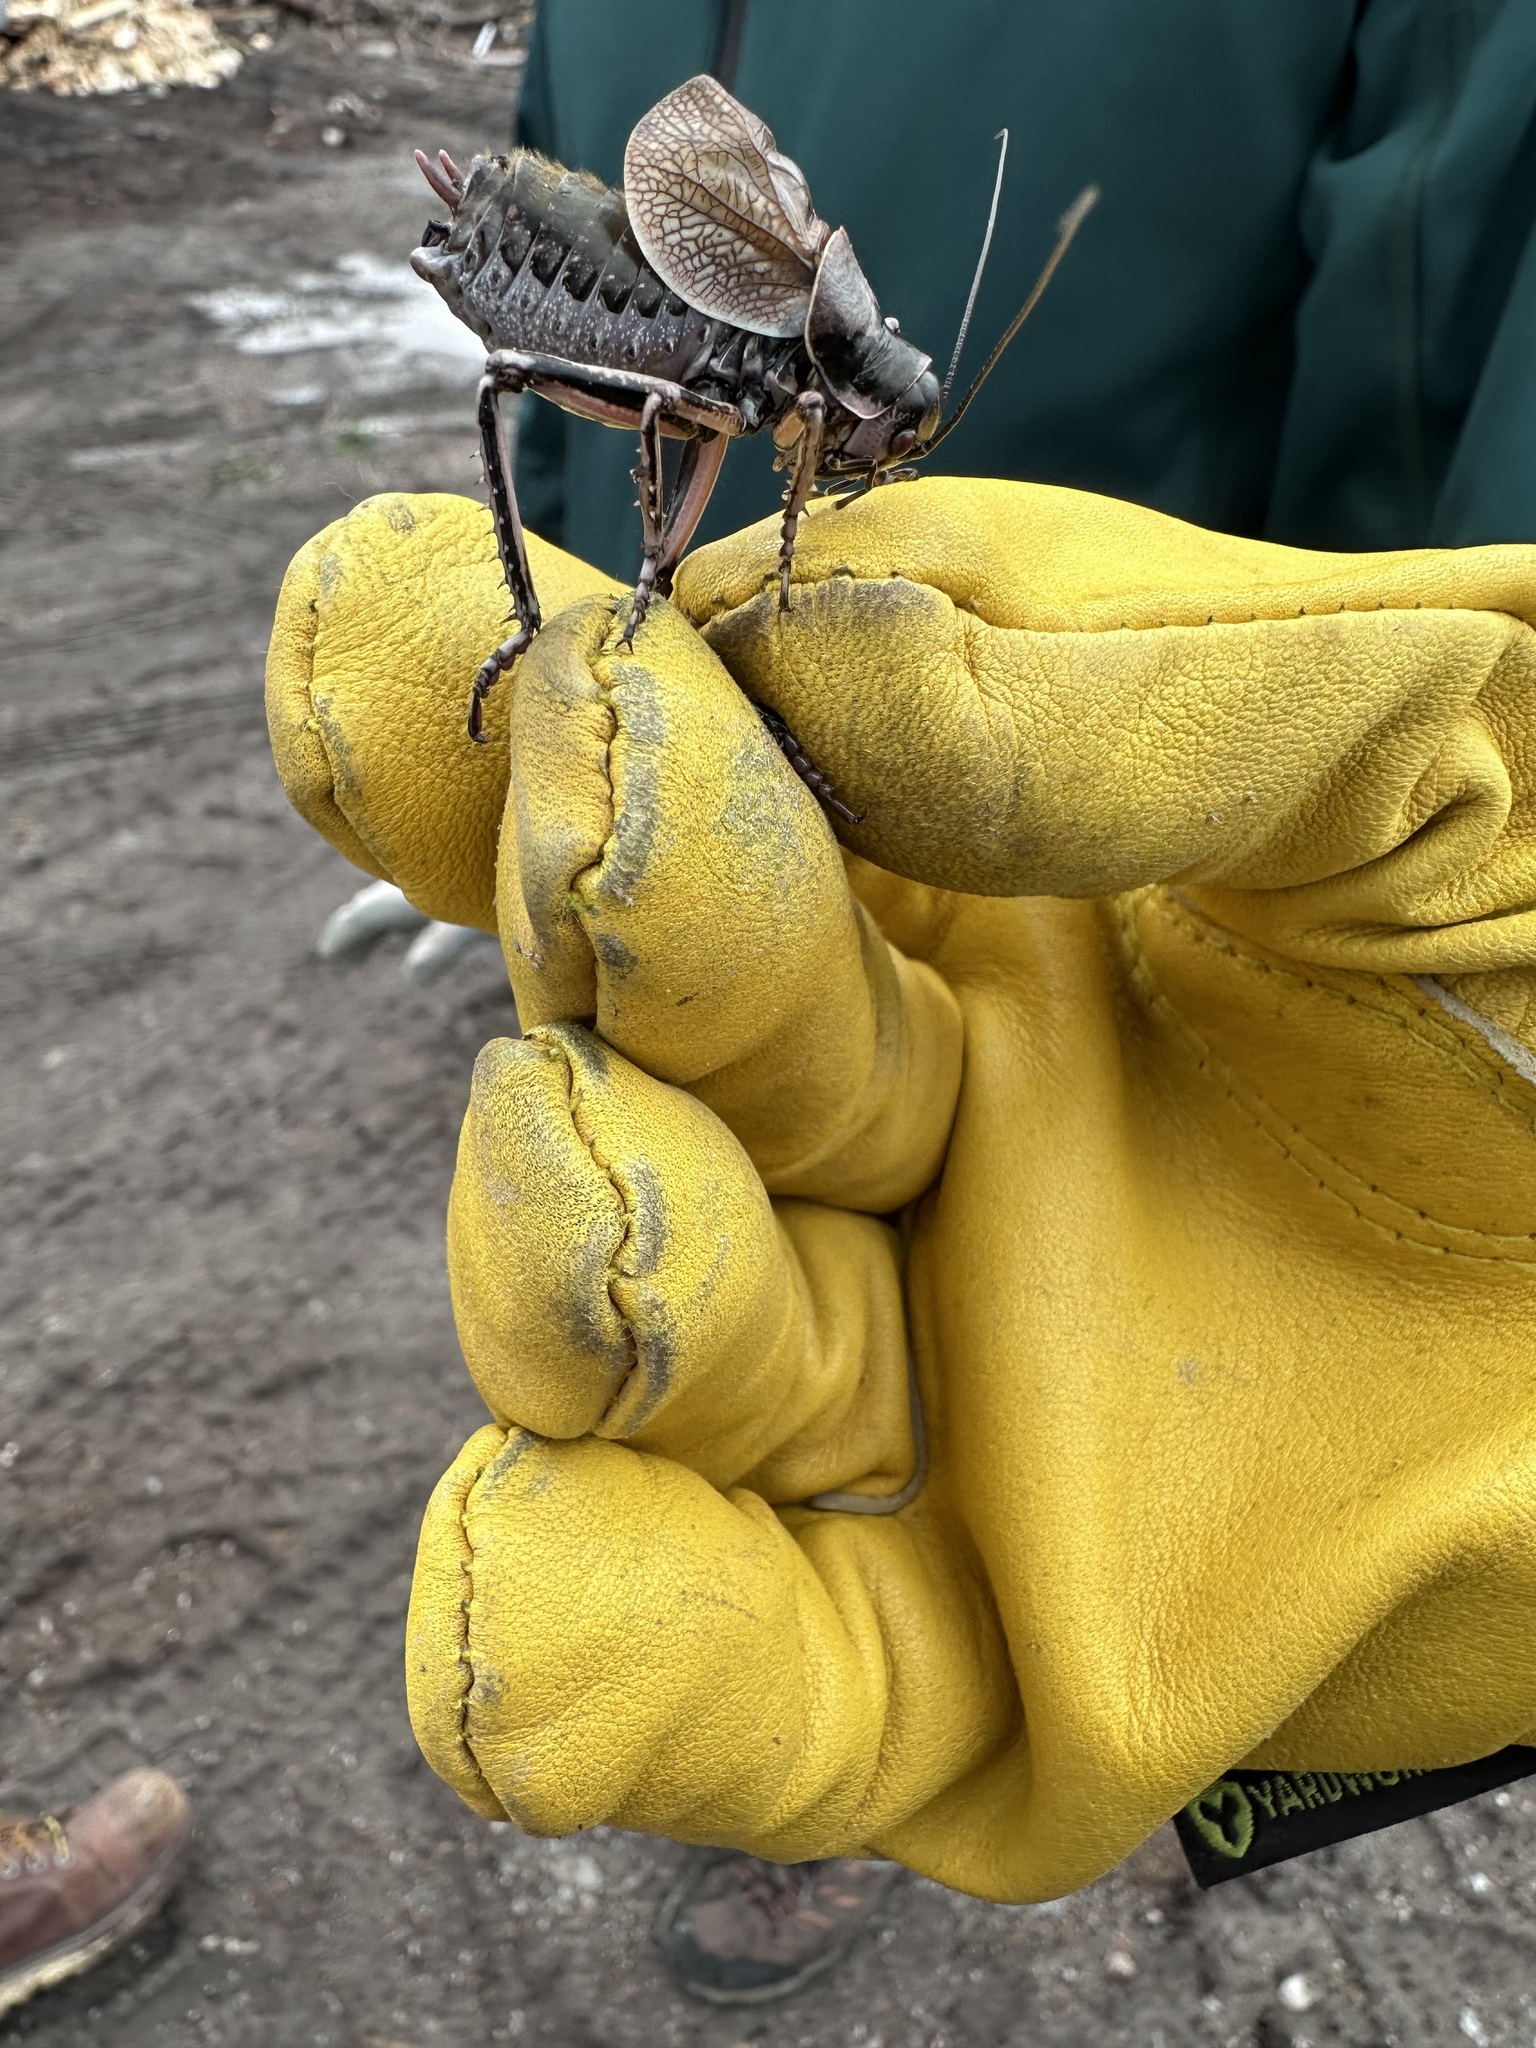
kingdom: Animalia
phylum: Arthropoda
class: Insecta
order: Orthoptera
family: Prophalangopsidae
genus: Cyphoderris
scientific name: Cyphoderris monstrosa
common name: Great grig
